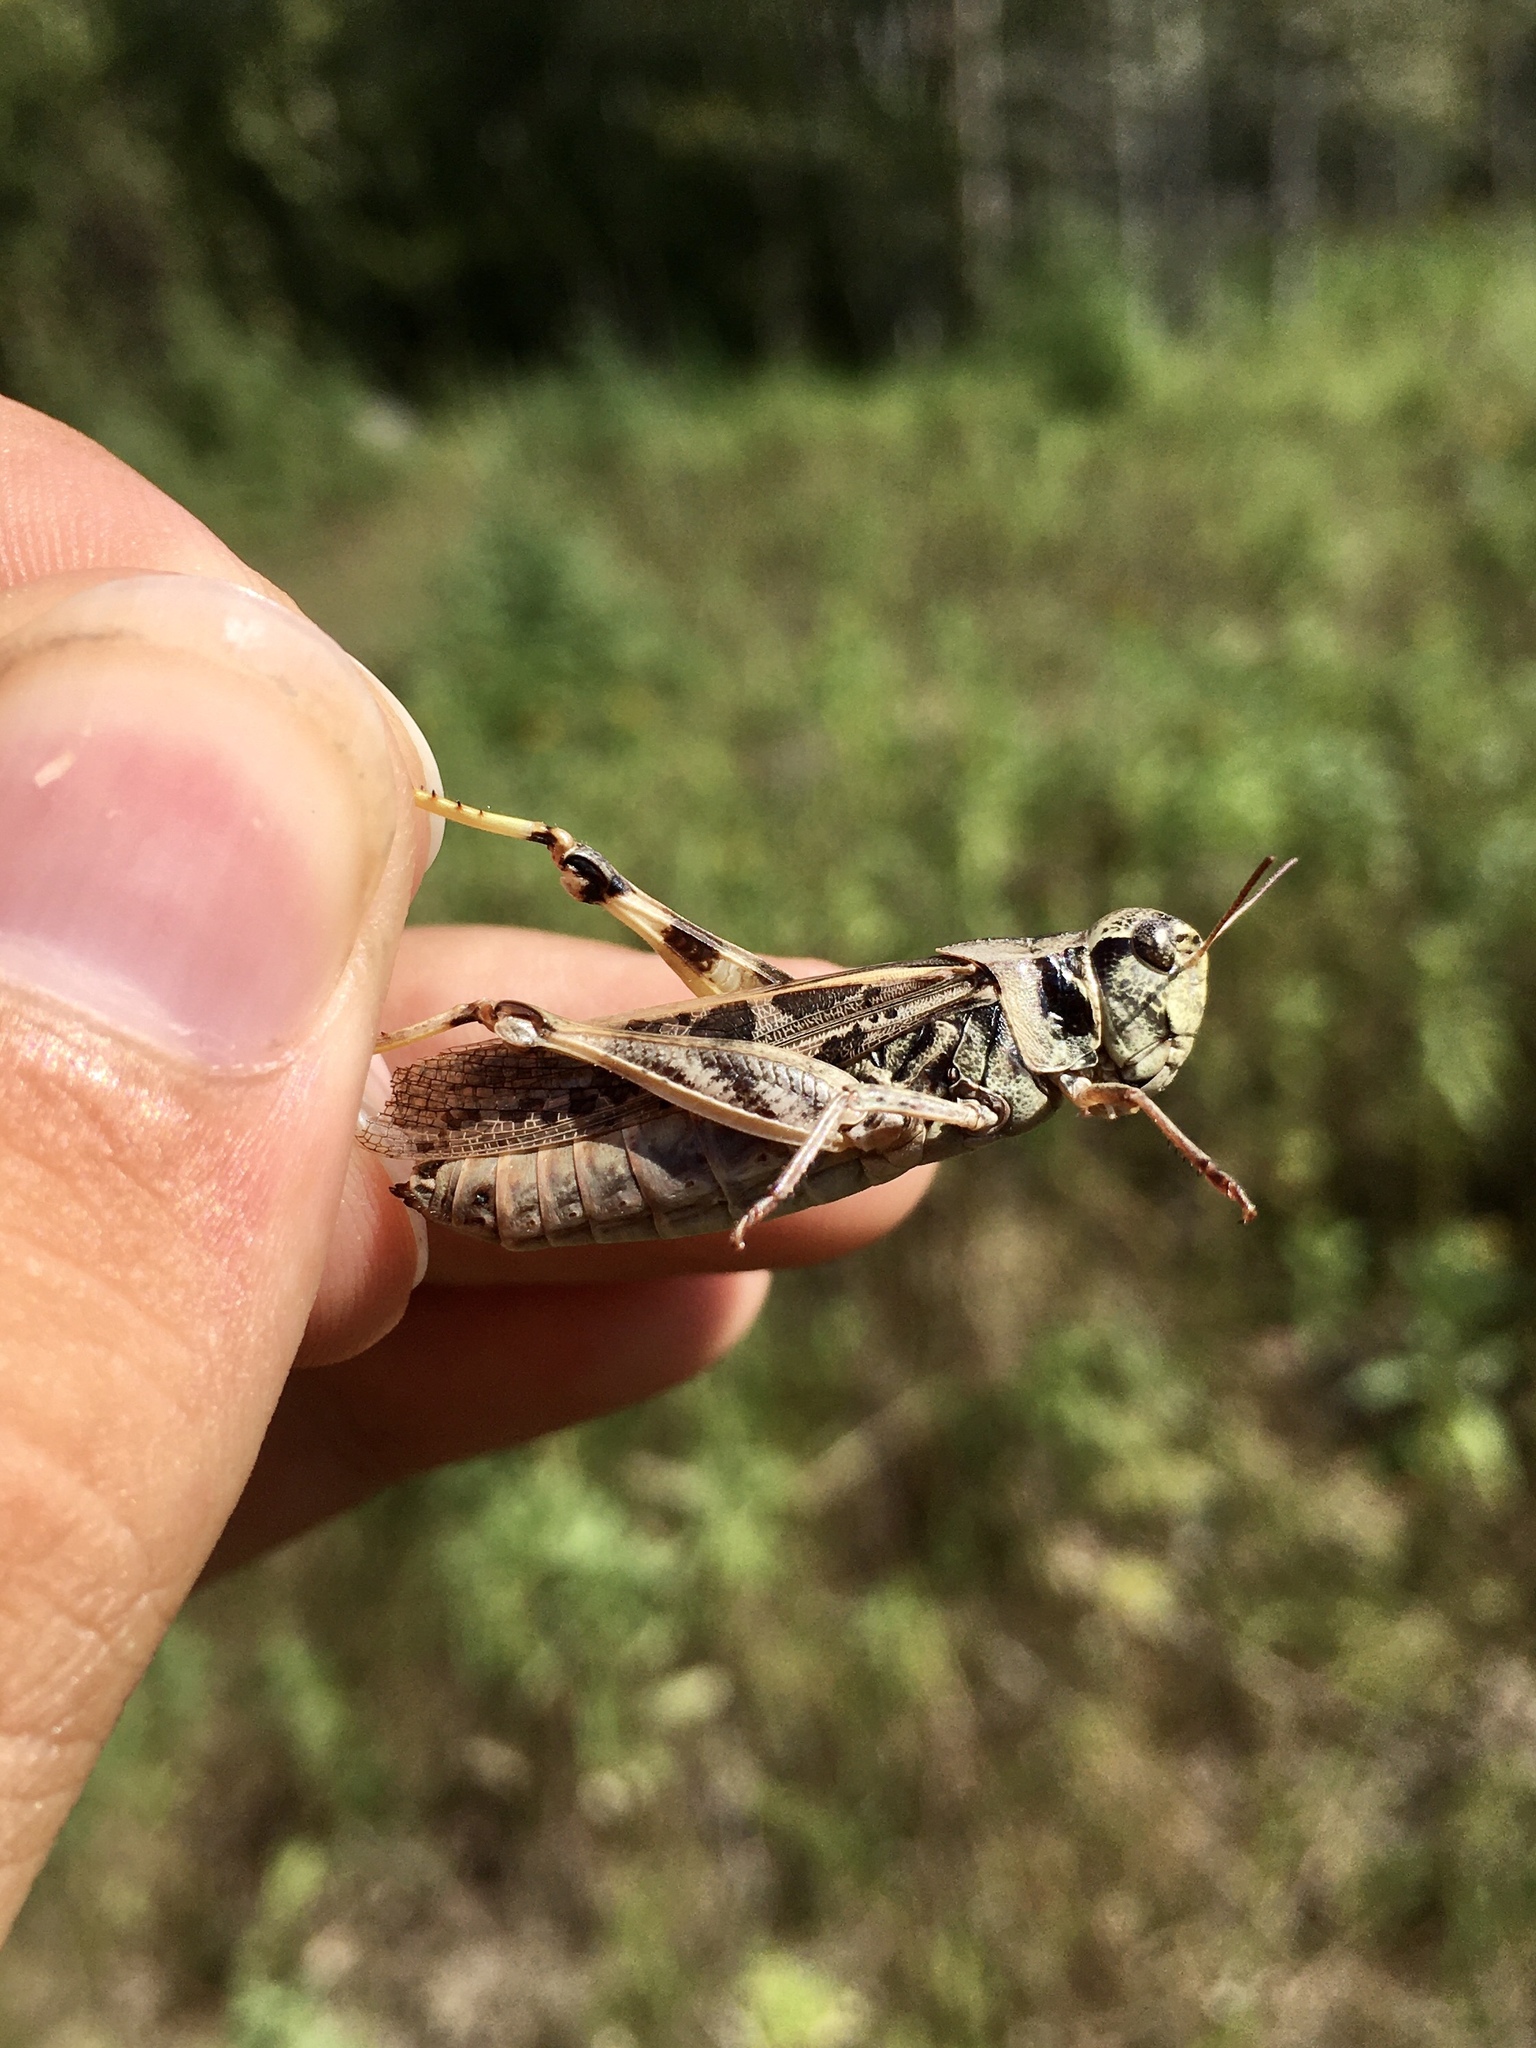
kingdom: Animalia
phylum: Arthropoda
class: Insecta
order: Orthoptera
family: Acrididae
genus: Camnula
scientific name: Camnula pellucida
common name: Clear-winged grasshopper
